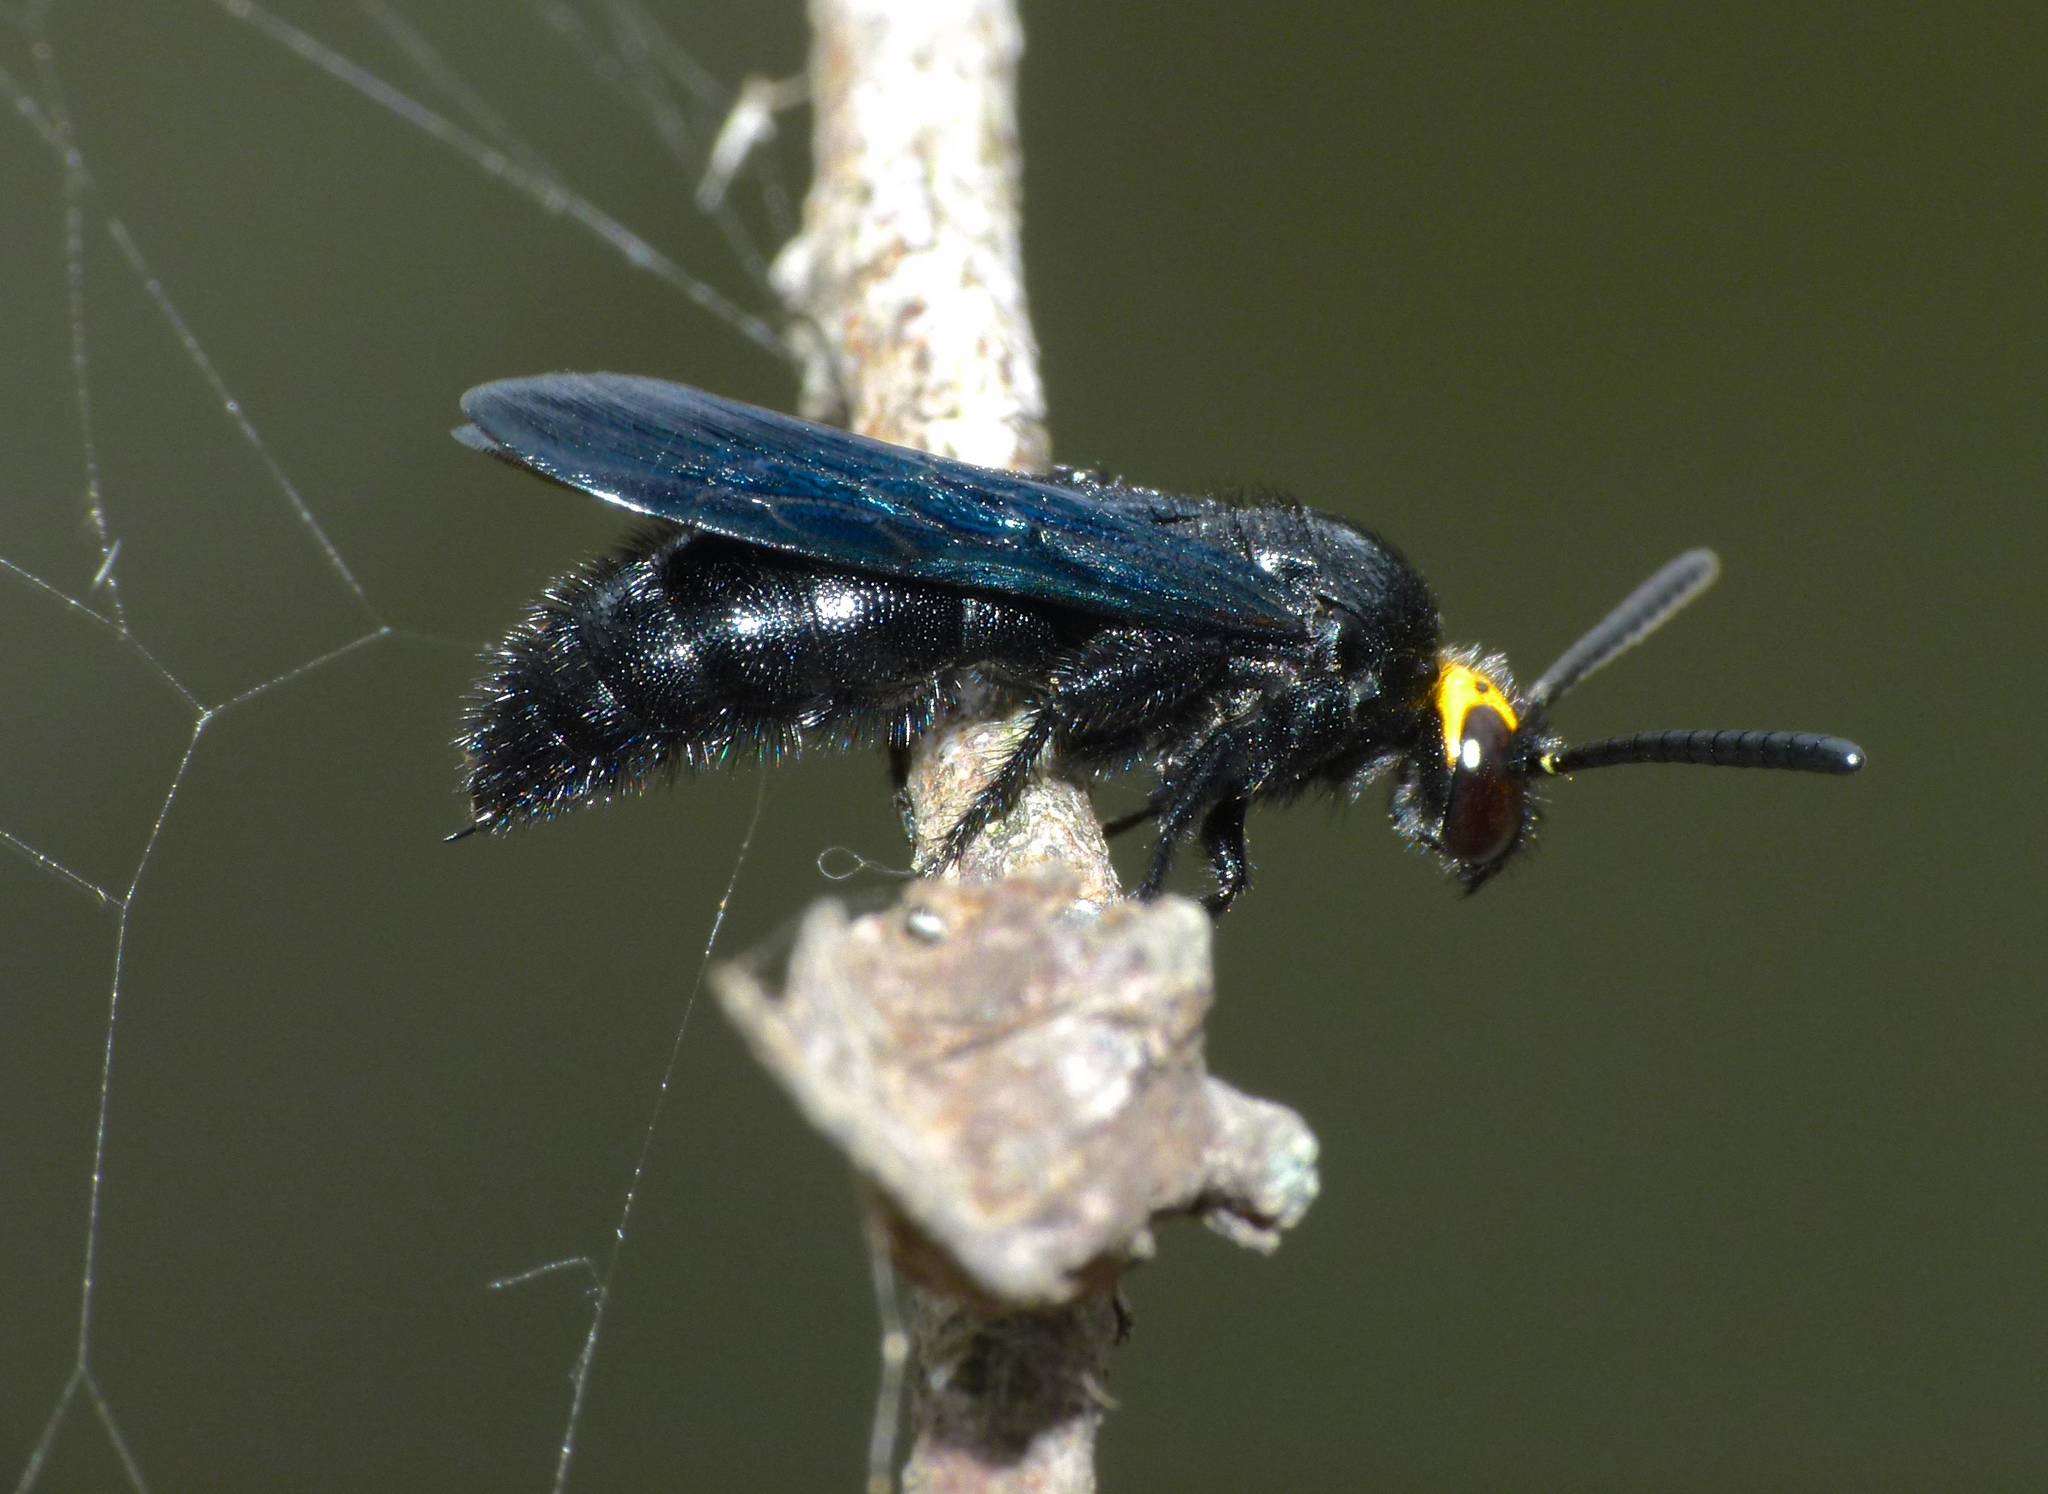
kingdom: Animalia
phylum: Arthropoda
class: Insecta
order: Hymenoptera
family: Scoliidae
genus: Scolia
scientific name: Scolia verticalis
